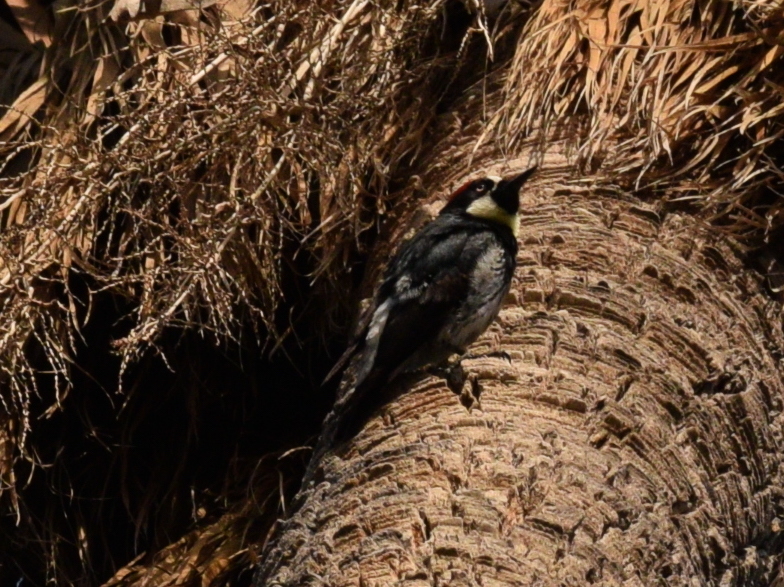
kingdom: Animalia
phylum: Chordata
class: Aves
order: Piciformes
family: Picidae
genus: Melanerpes
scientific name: Melanerpes formicivorus
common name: Acorn woodpecker
